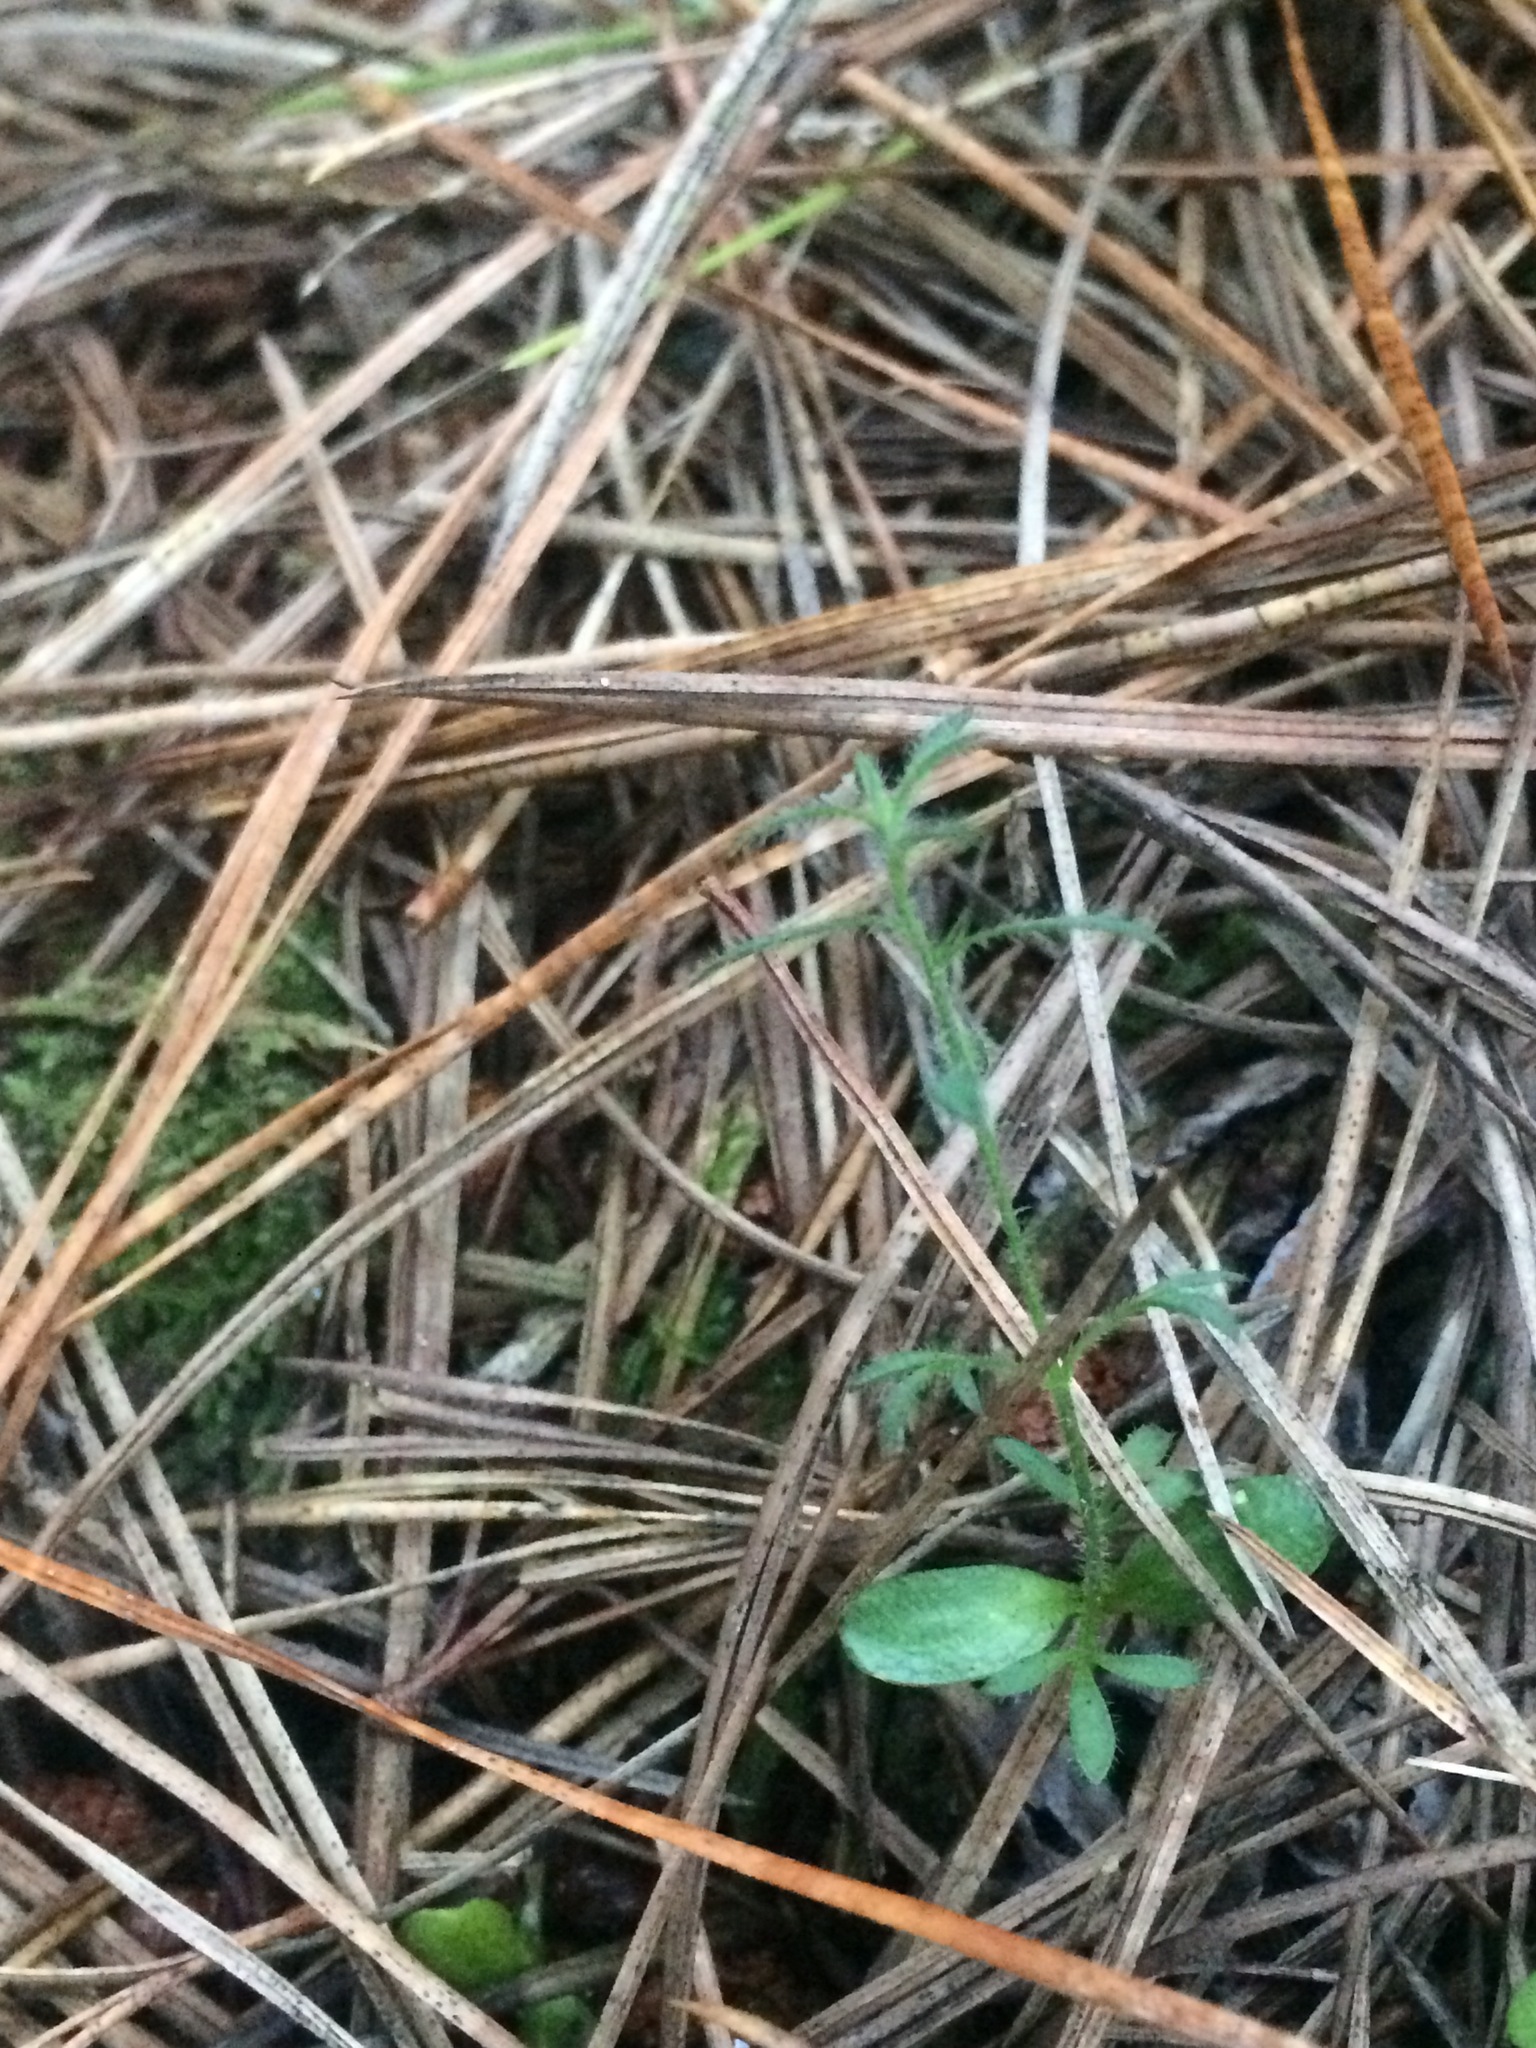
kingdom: Plantae
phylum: Tracheophyta
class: Magnoliopsida
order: Fabales
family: Fabaceae
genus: Ulex
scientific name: Ulex europaeus
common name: Common gorse
